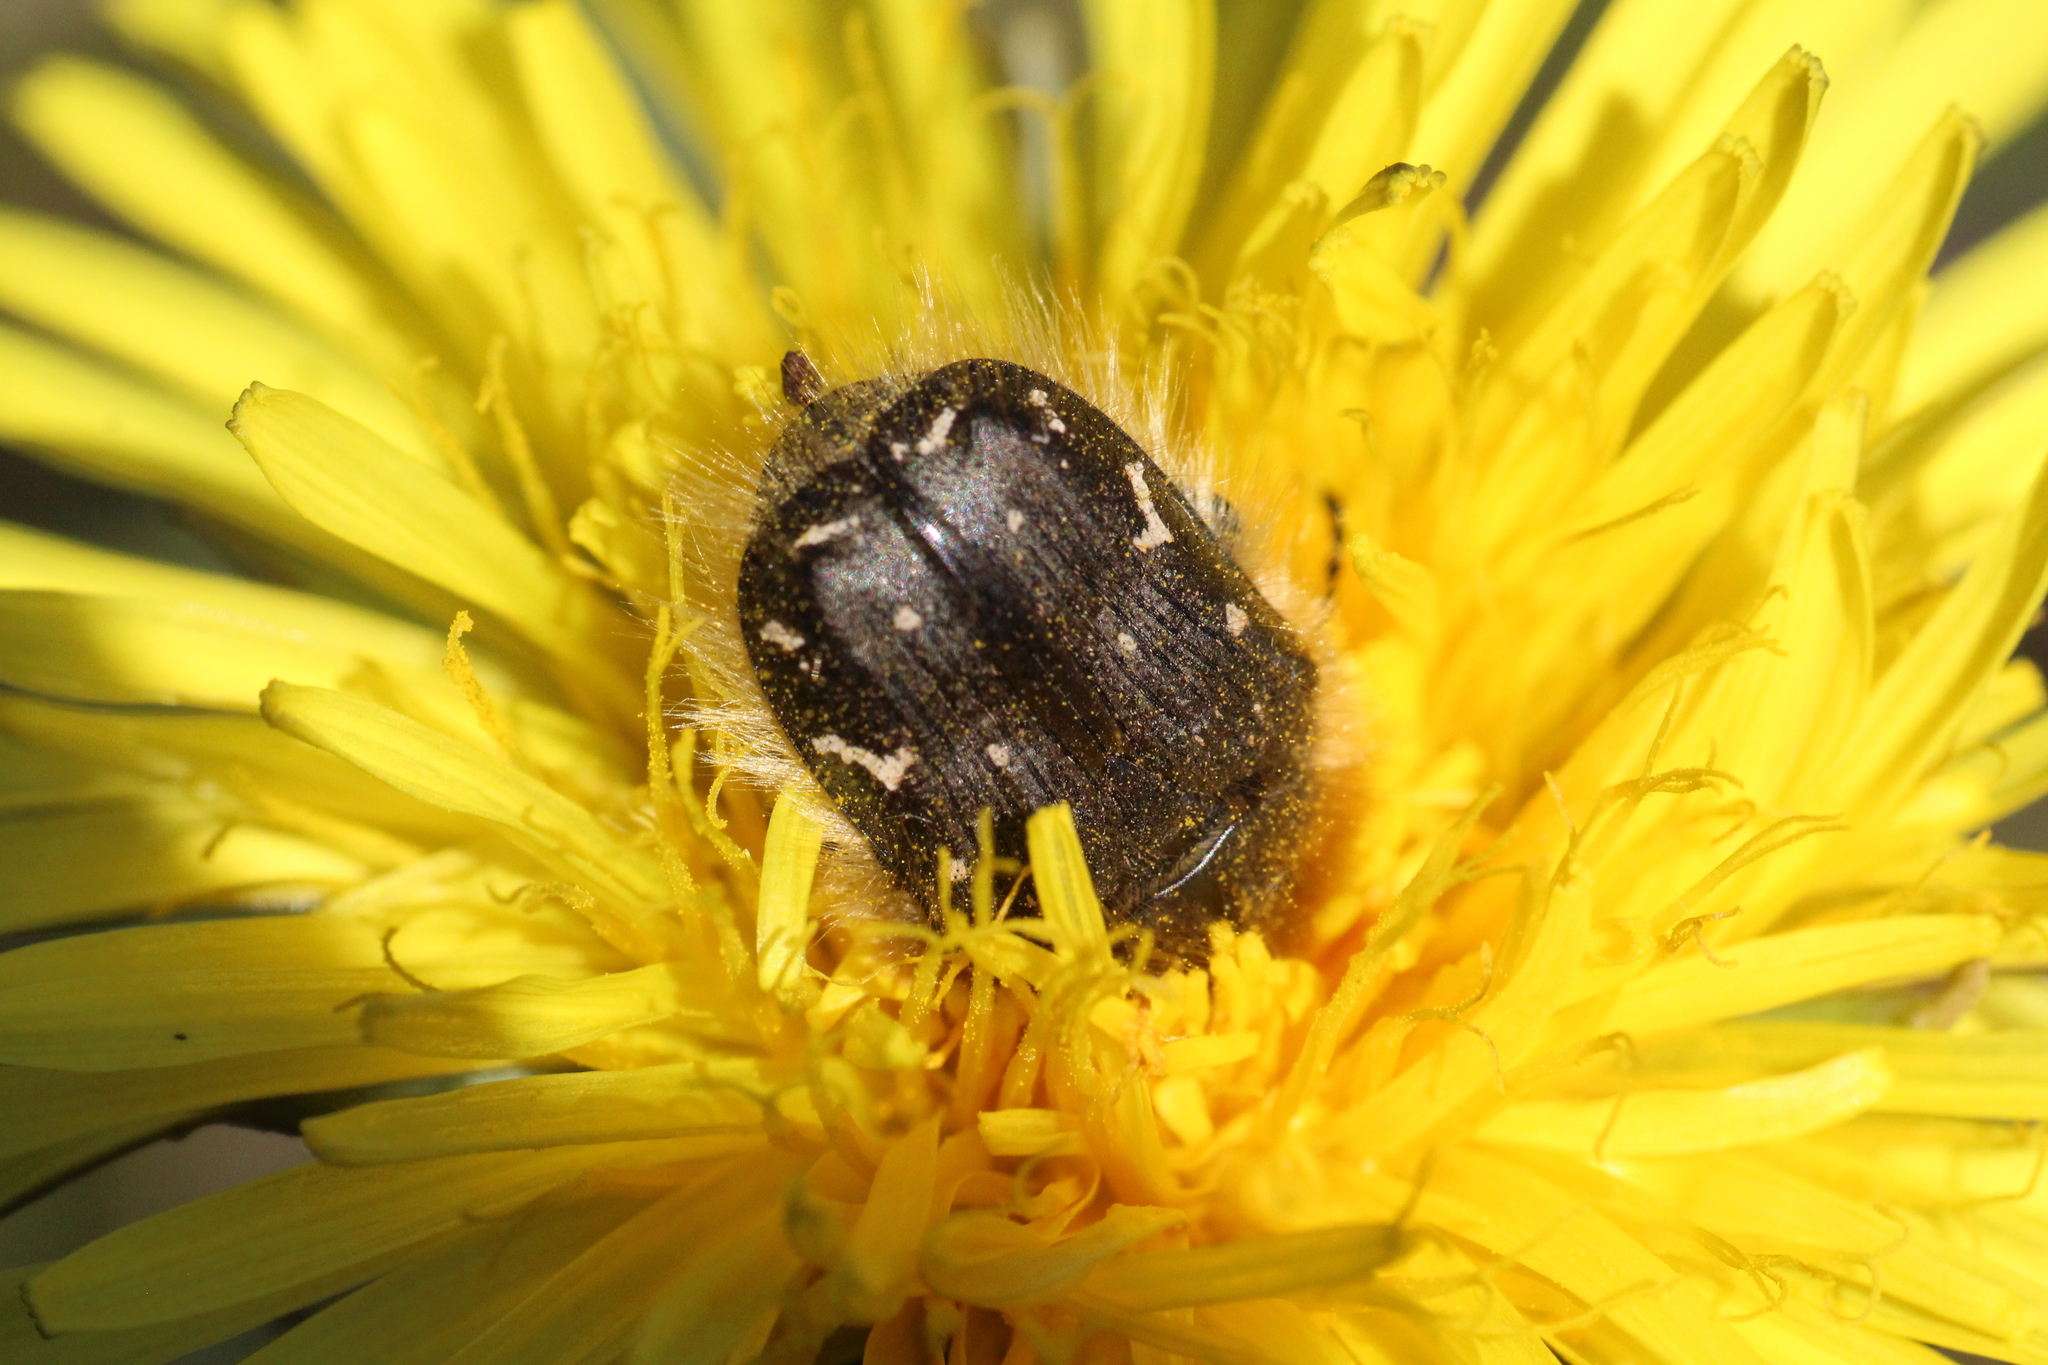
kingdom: Animalia
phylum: Arthropoda
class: Insecta
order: Coleoptera
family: Scarabaeidae
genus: Tropinota
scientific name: Tropinota hirta
